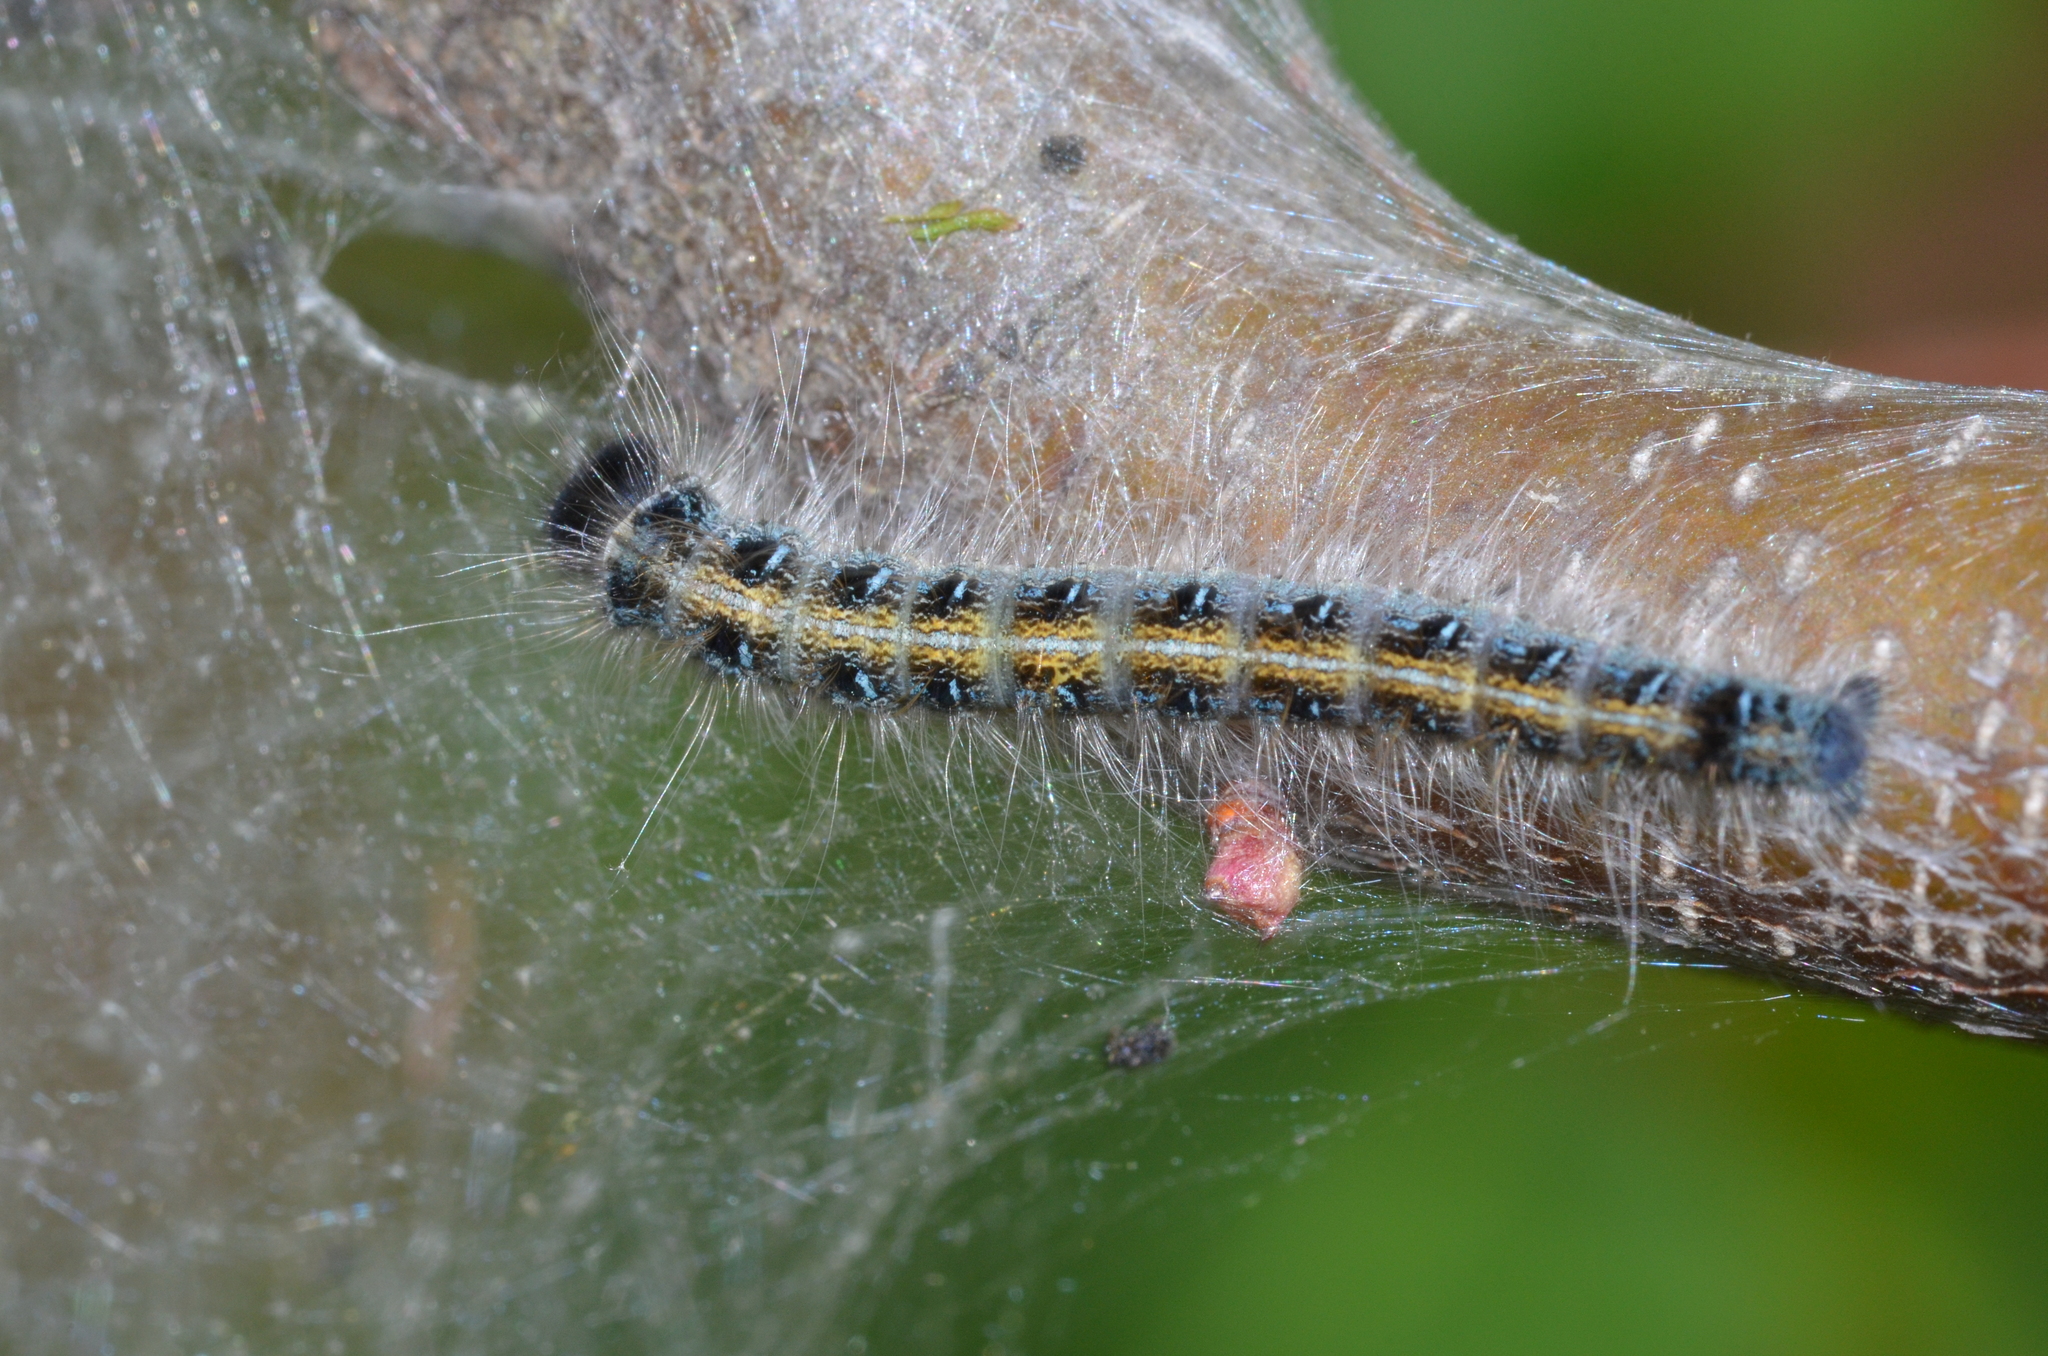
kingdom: Animalia
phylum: Arthropoda
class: Insecta
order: Lepidoptera
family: Lasiocampidae
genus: Malacosoma
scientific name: Malacosoma americana
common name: Eastern tent caterpillar moth
